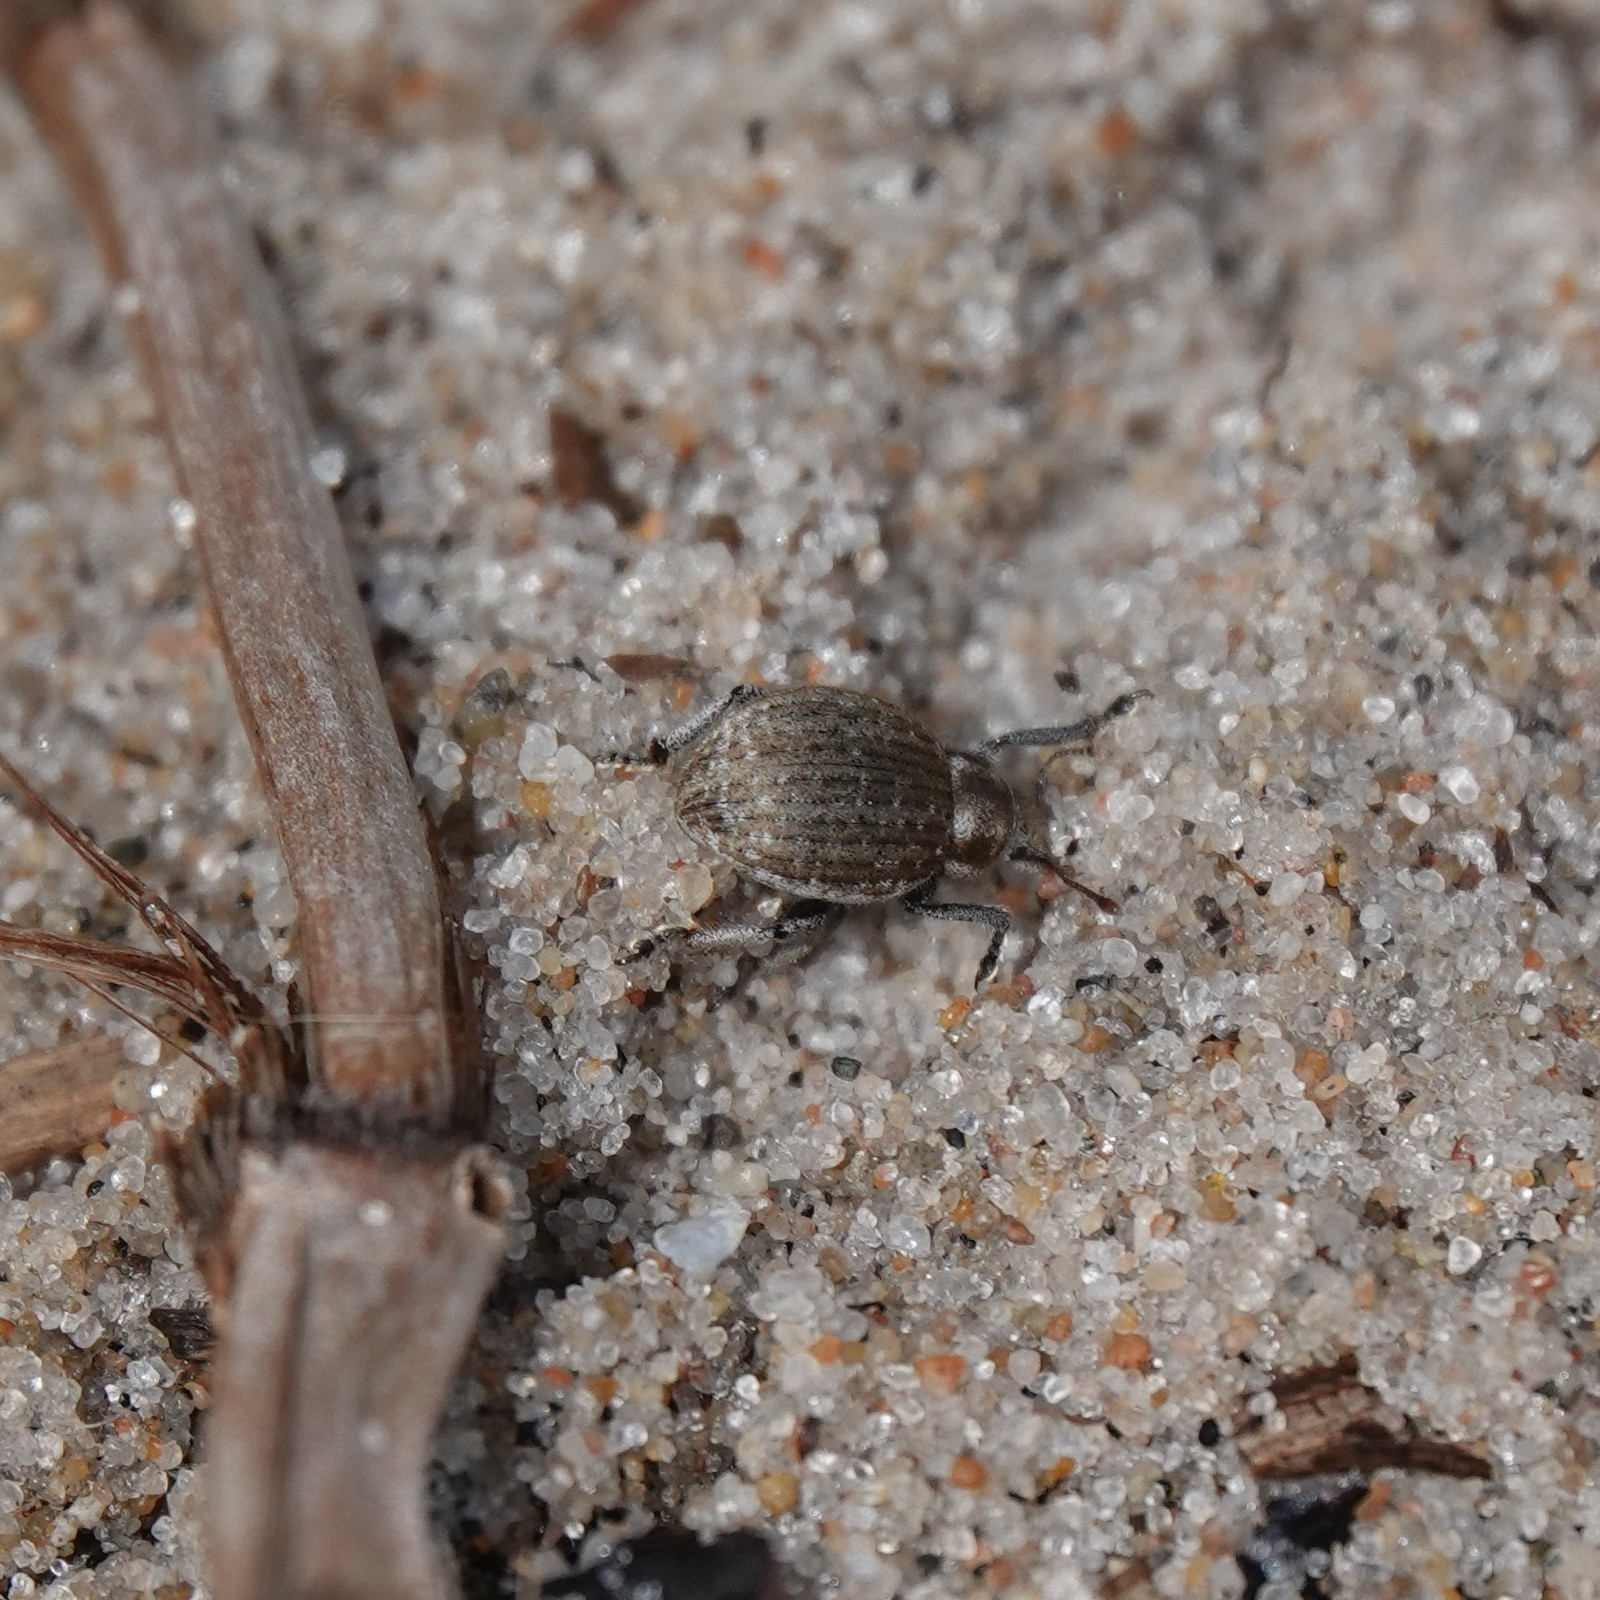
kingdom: Animalia
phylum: Arthropoda
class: Insecta
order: Coleoptera
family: Curculionidae
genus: Philopedon
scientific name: Philopedon plagiatum
